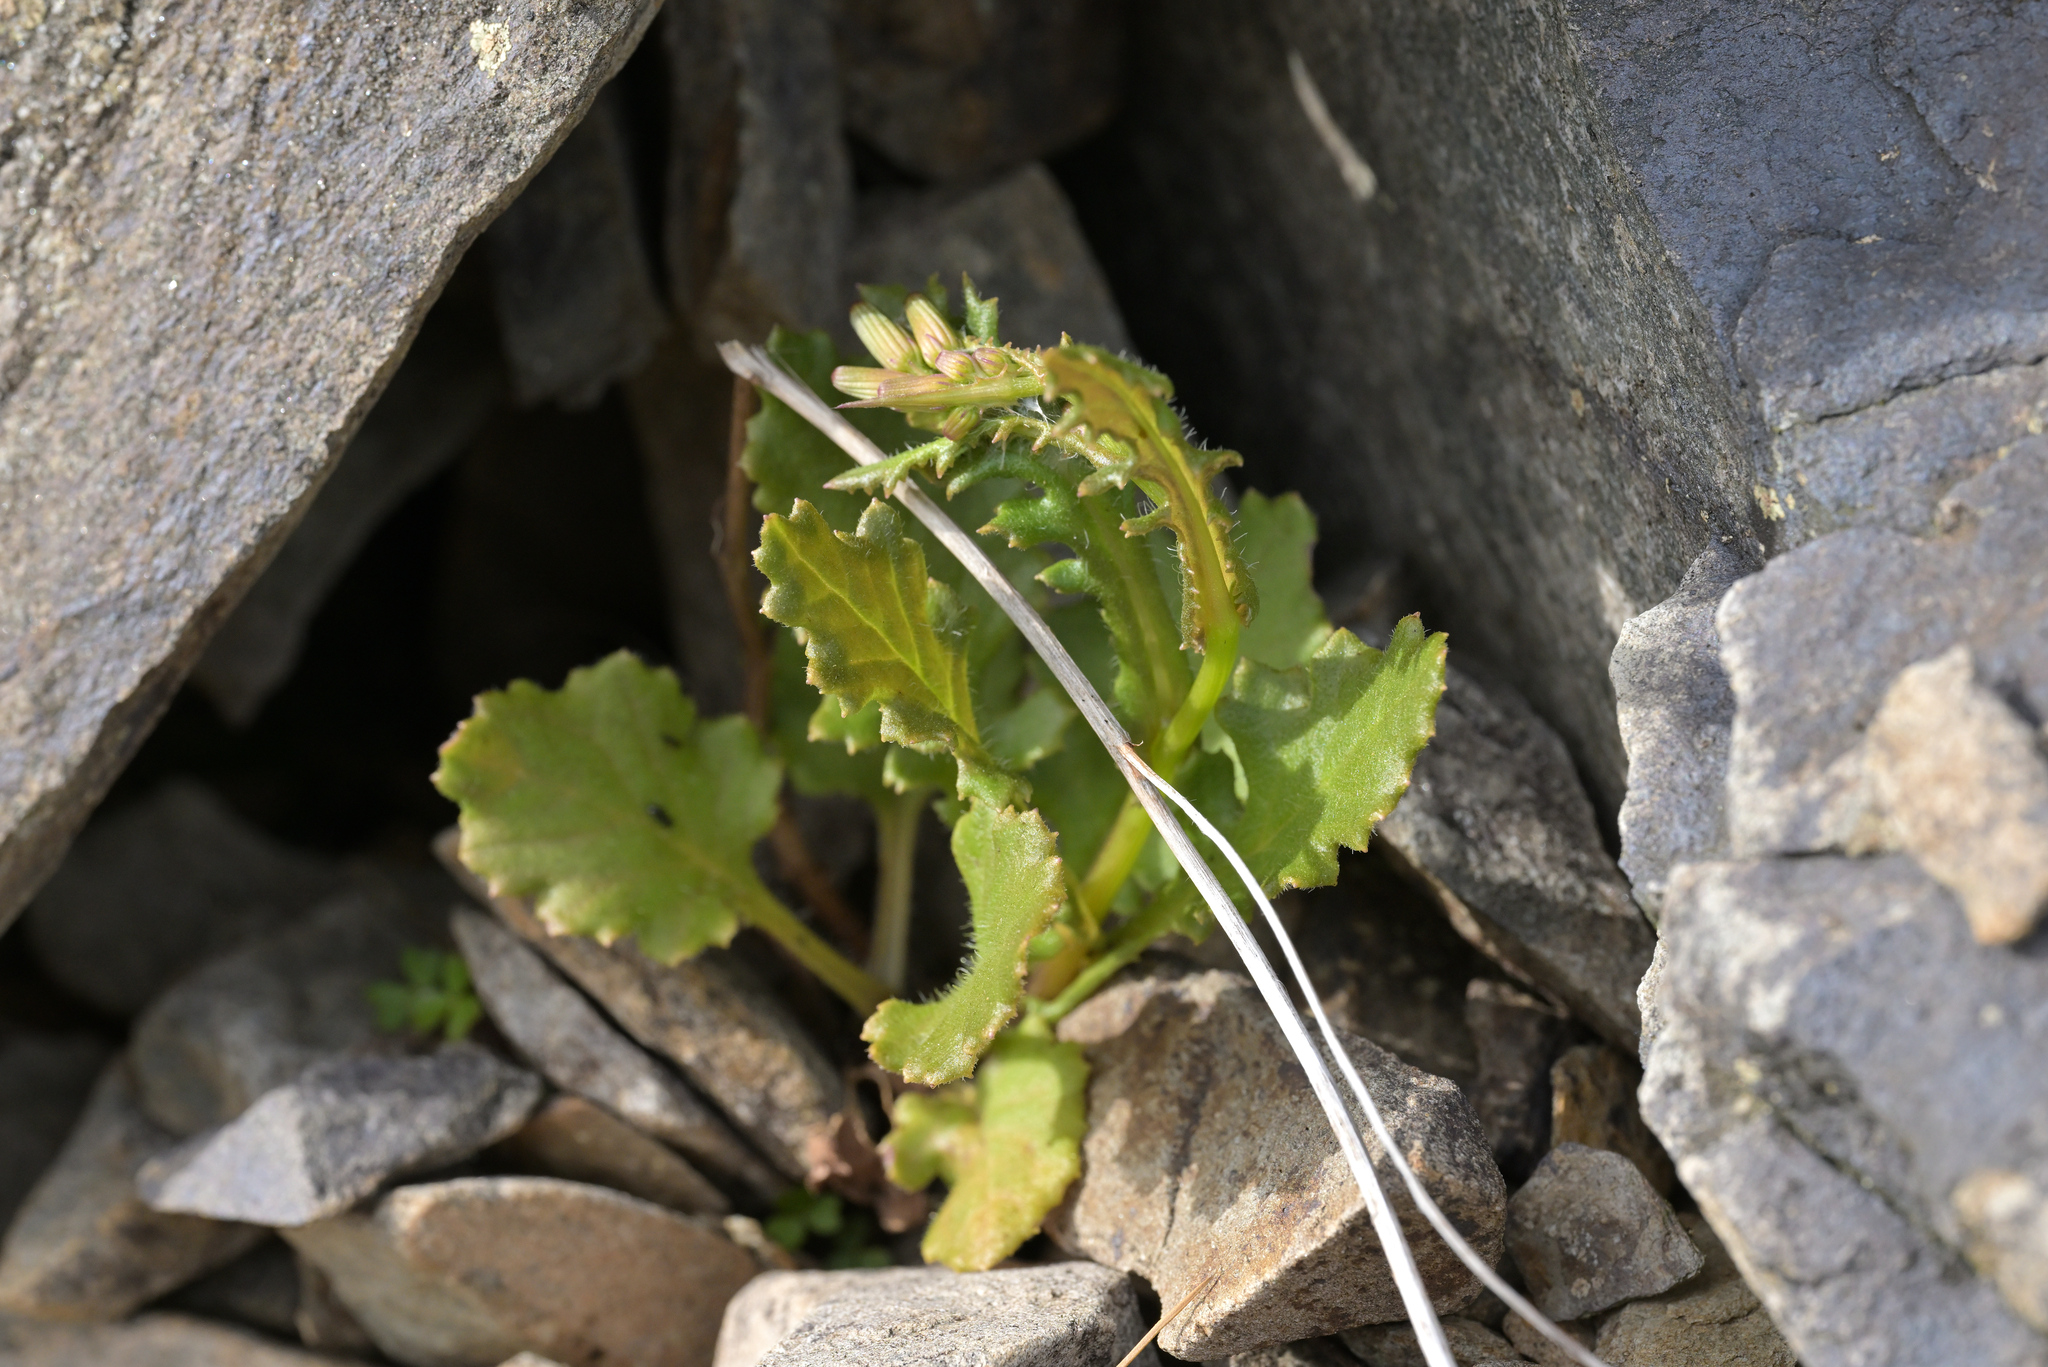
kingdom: Plantae
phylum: Tracheophyta
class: Magnoliopsida
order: Asterales
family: Asteraceae
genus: Senecio
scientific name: Senecio wairauensis
